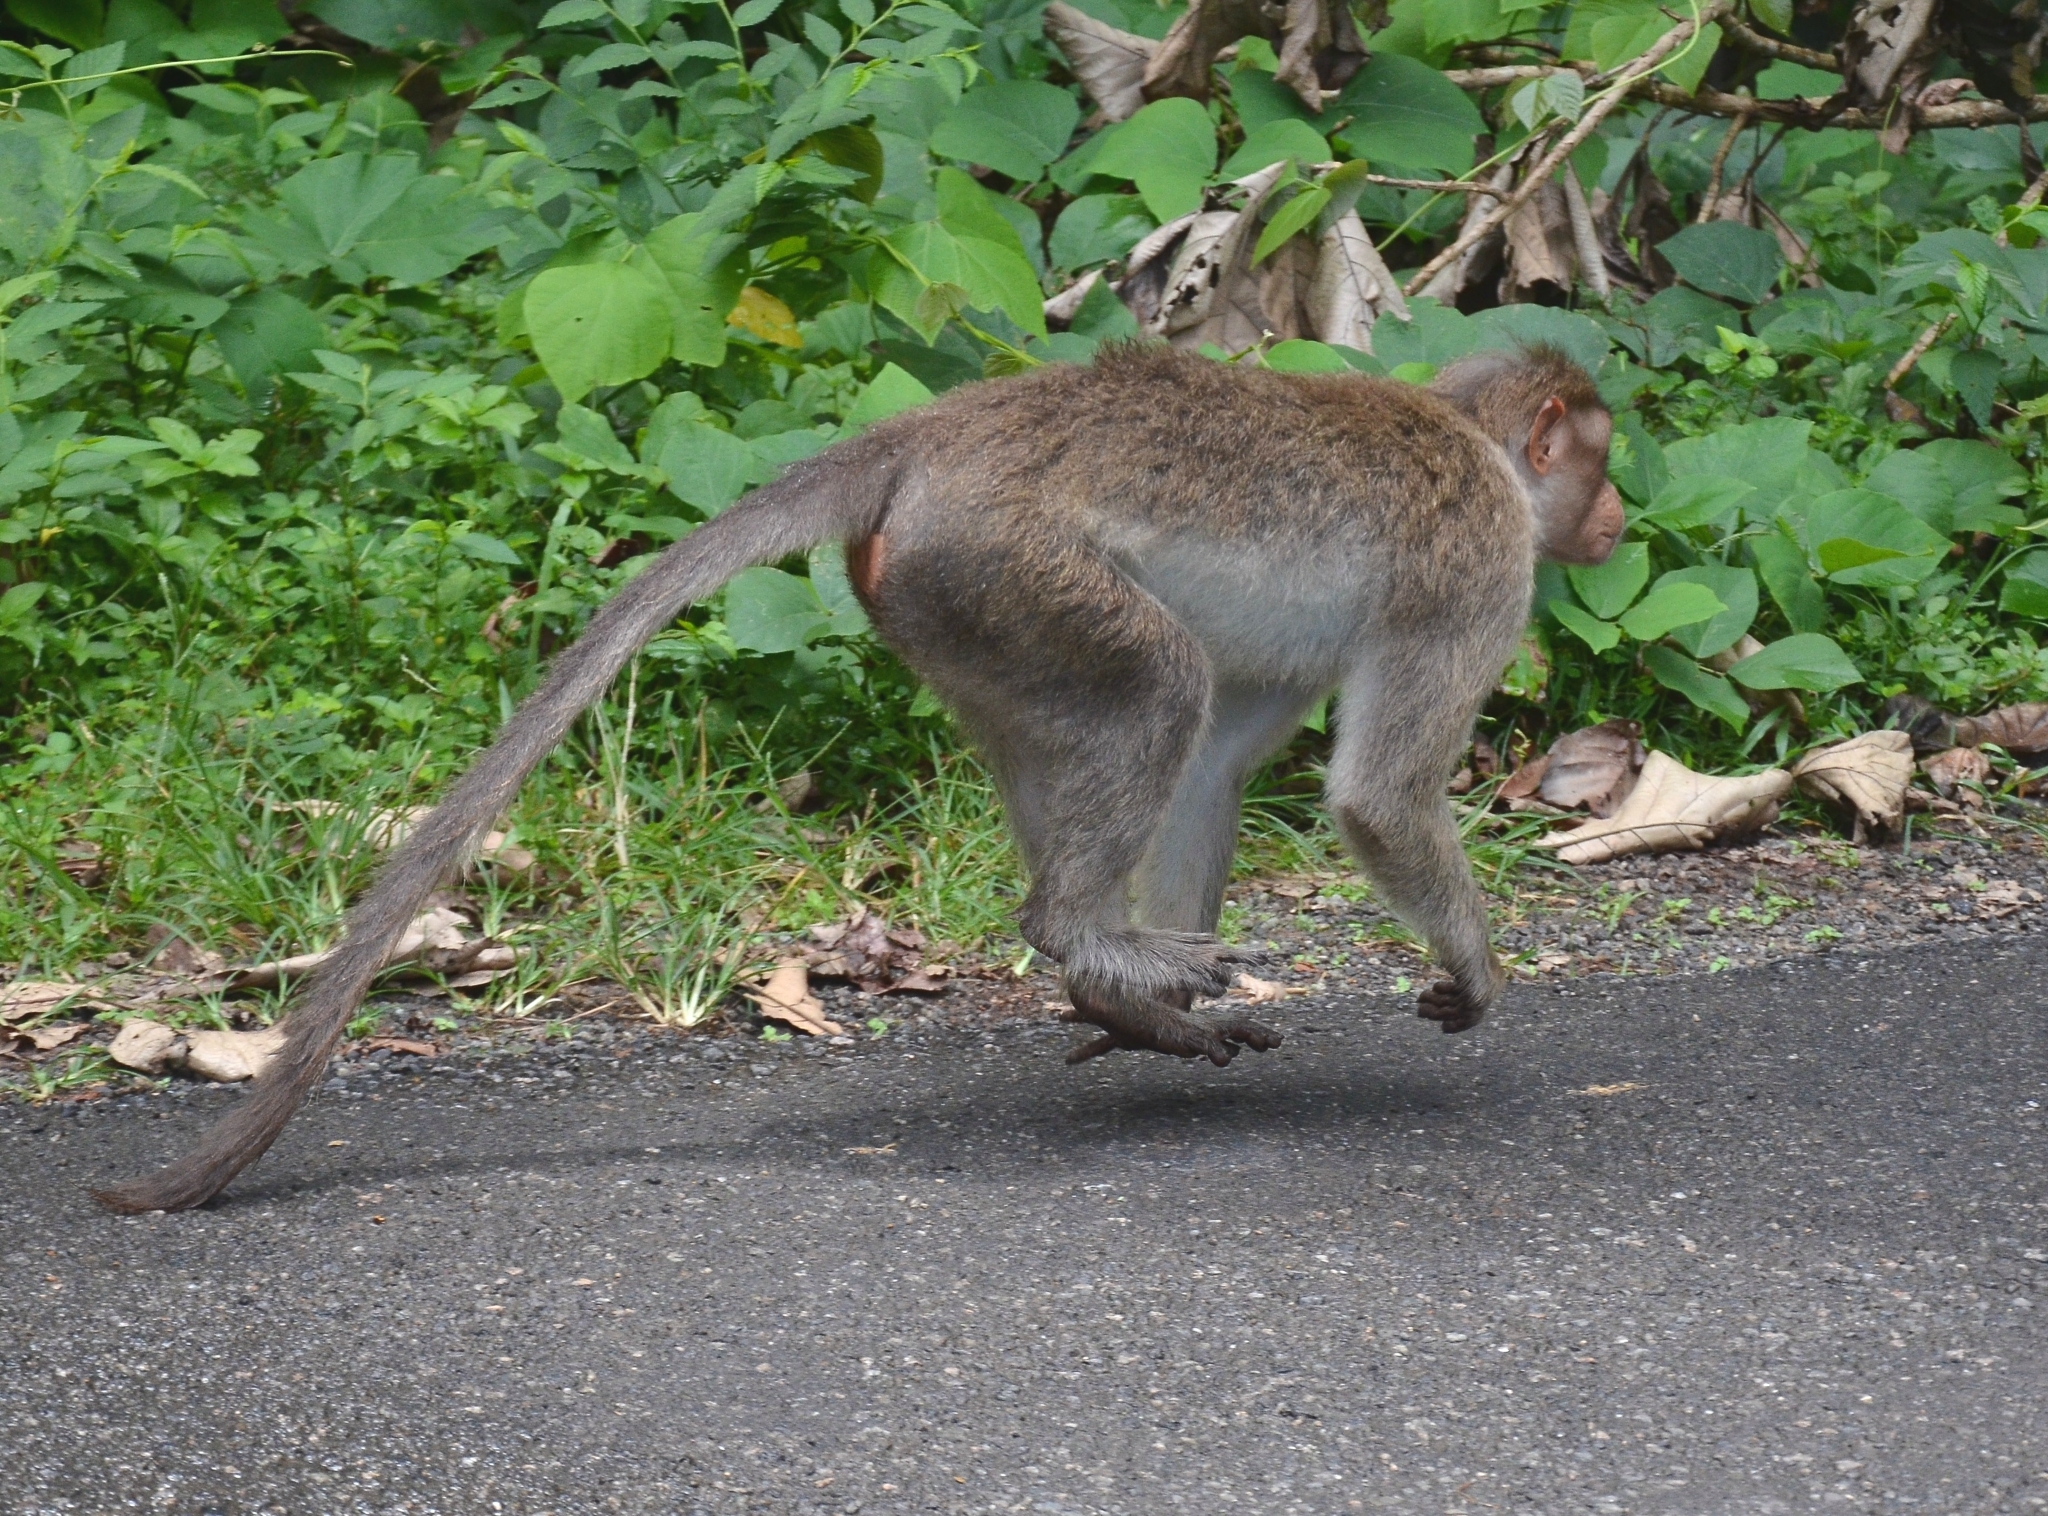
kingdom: Animalia
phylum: Chordata
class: Mammalia
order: Primates
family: Cercopithecidae
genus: Macaca
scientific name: Macaca radiata
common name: Bonnet macaque
